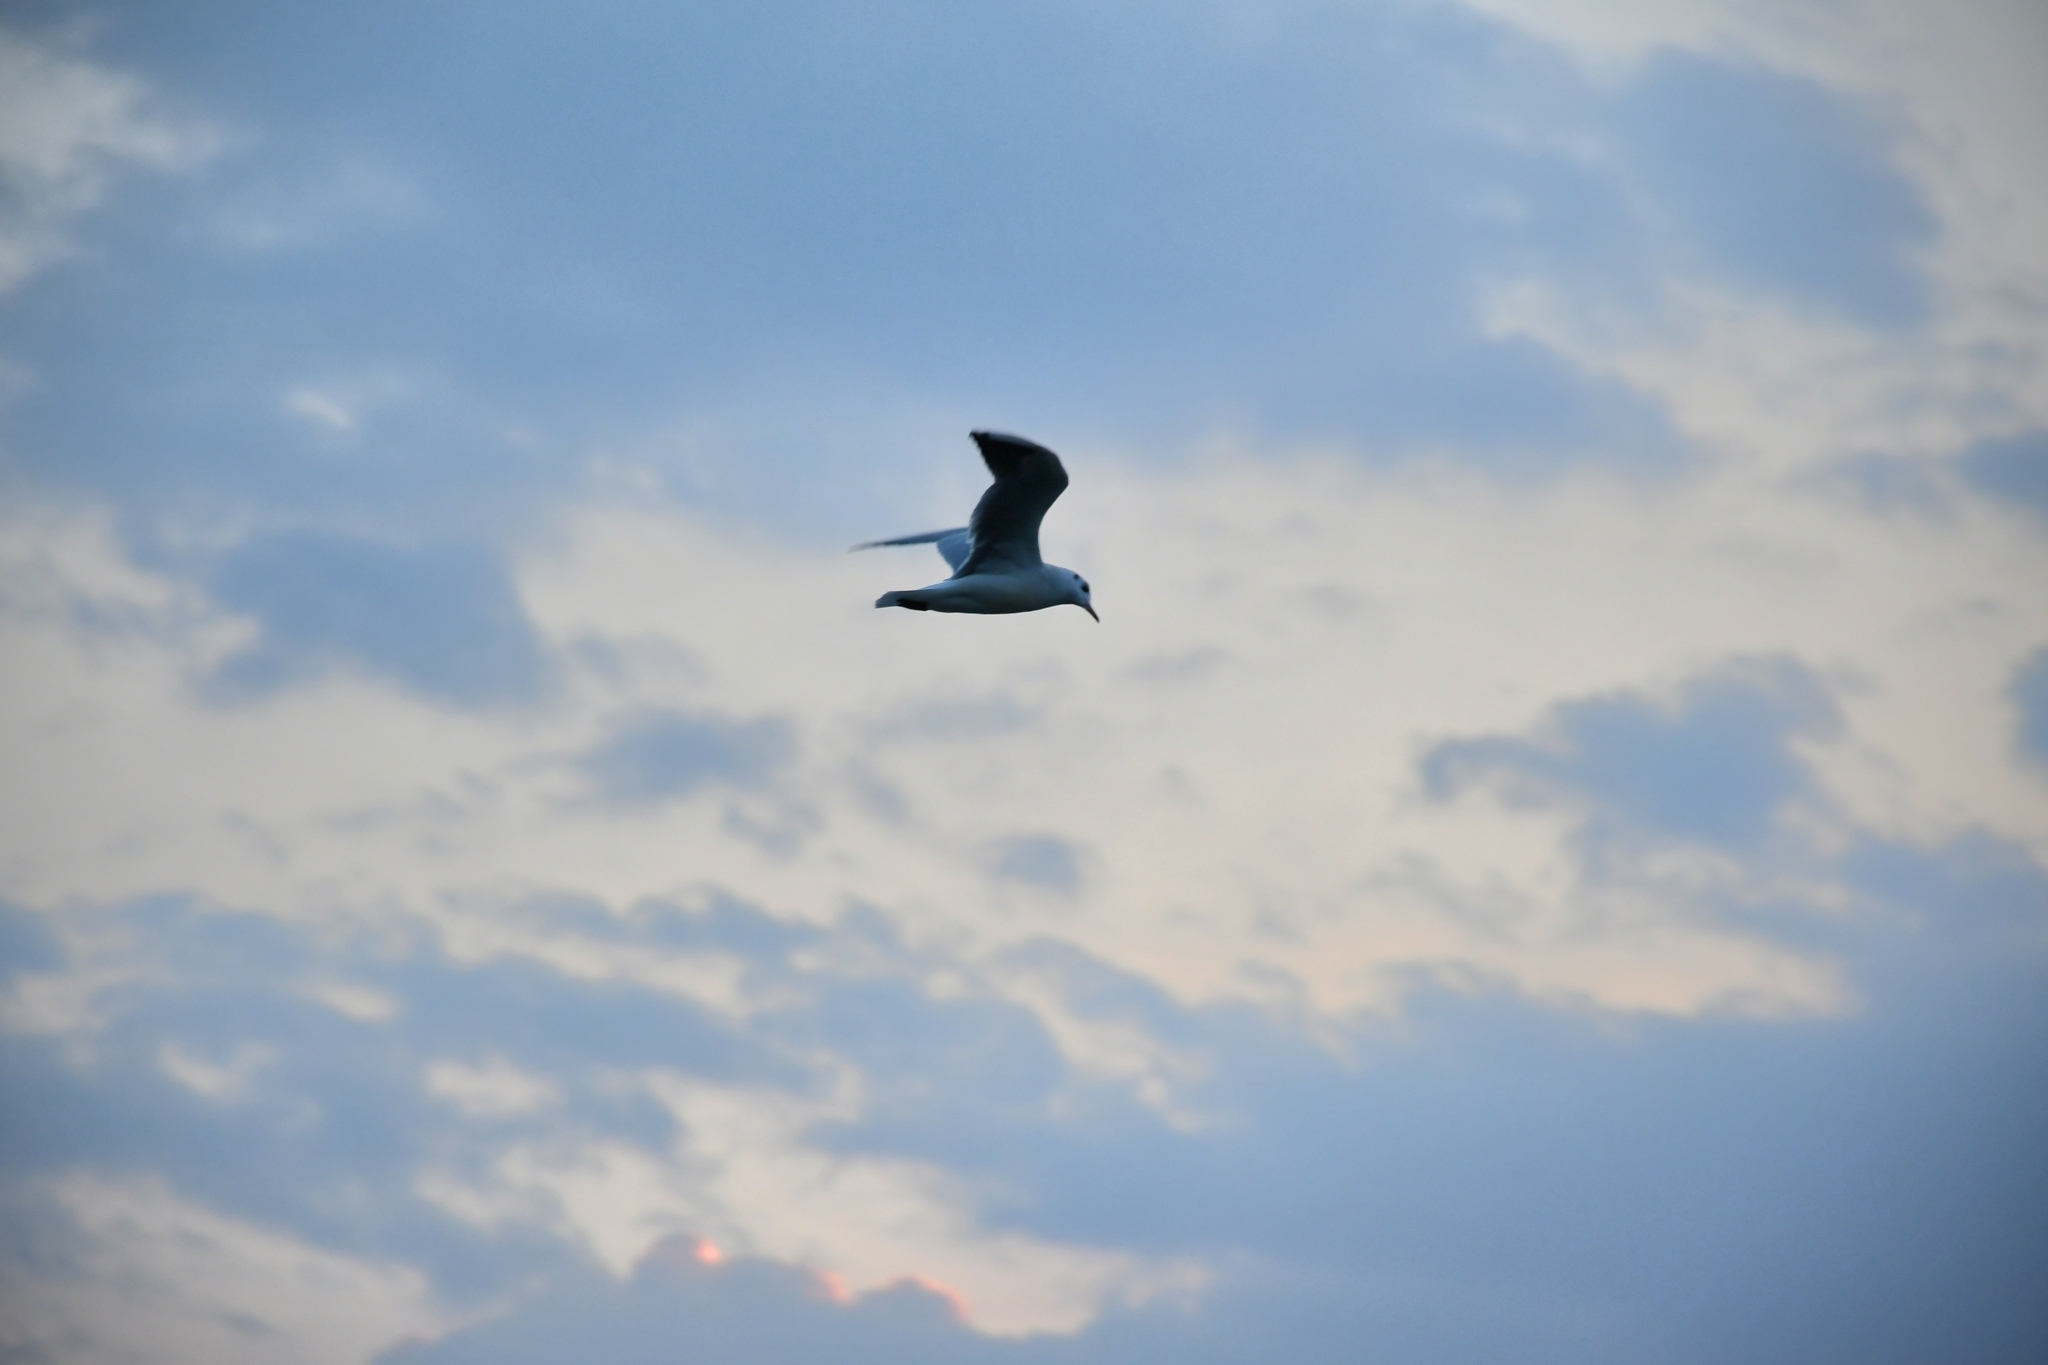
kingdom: Animalia
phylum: Chordata
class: Aves
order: Charadriiformes
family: Laridae
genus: Chroicocephalus
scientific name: Chroicocephalus ridibundus
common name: Black-headed gull
